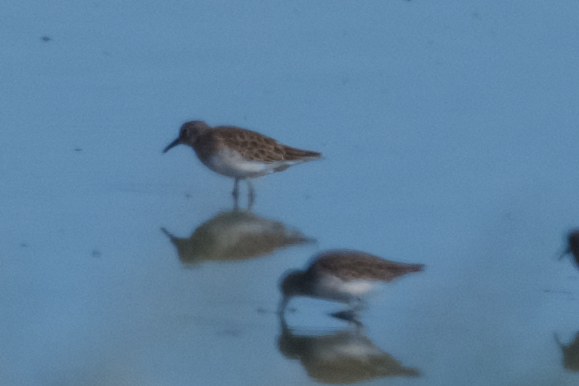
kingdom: Animalia
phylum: Chordata
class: Aves
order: Charadriiformes
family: Scolopacidae
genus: Calidris
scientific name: Calidris minutilla
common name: Least sandpiper
